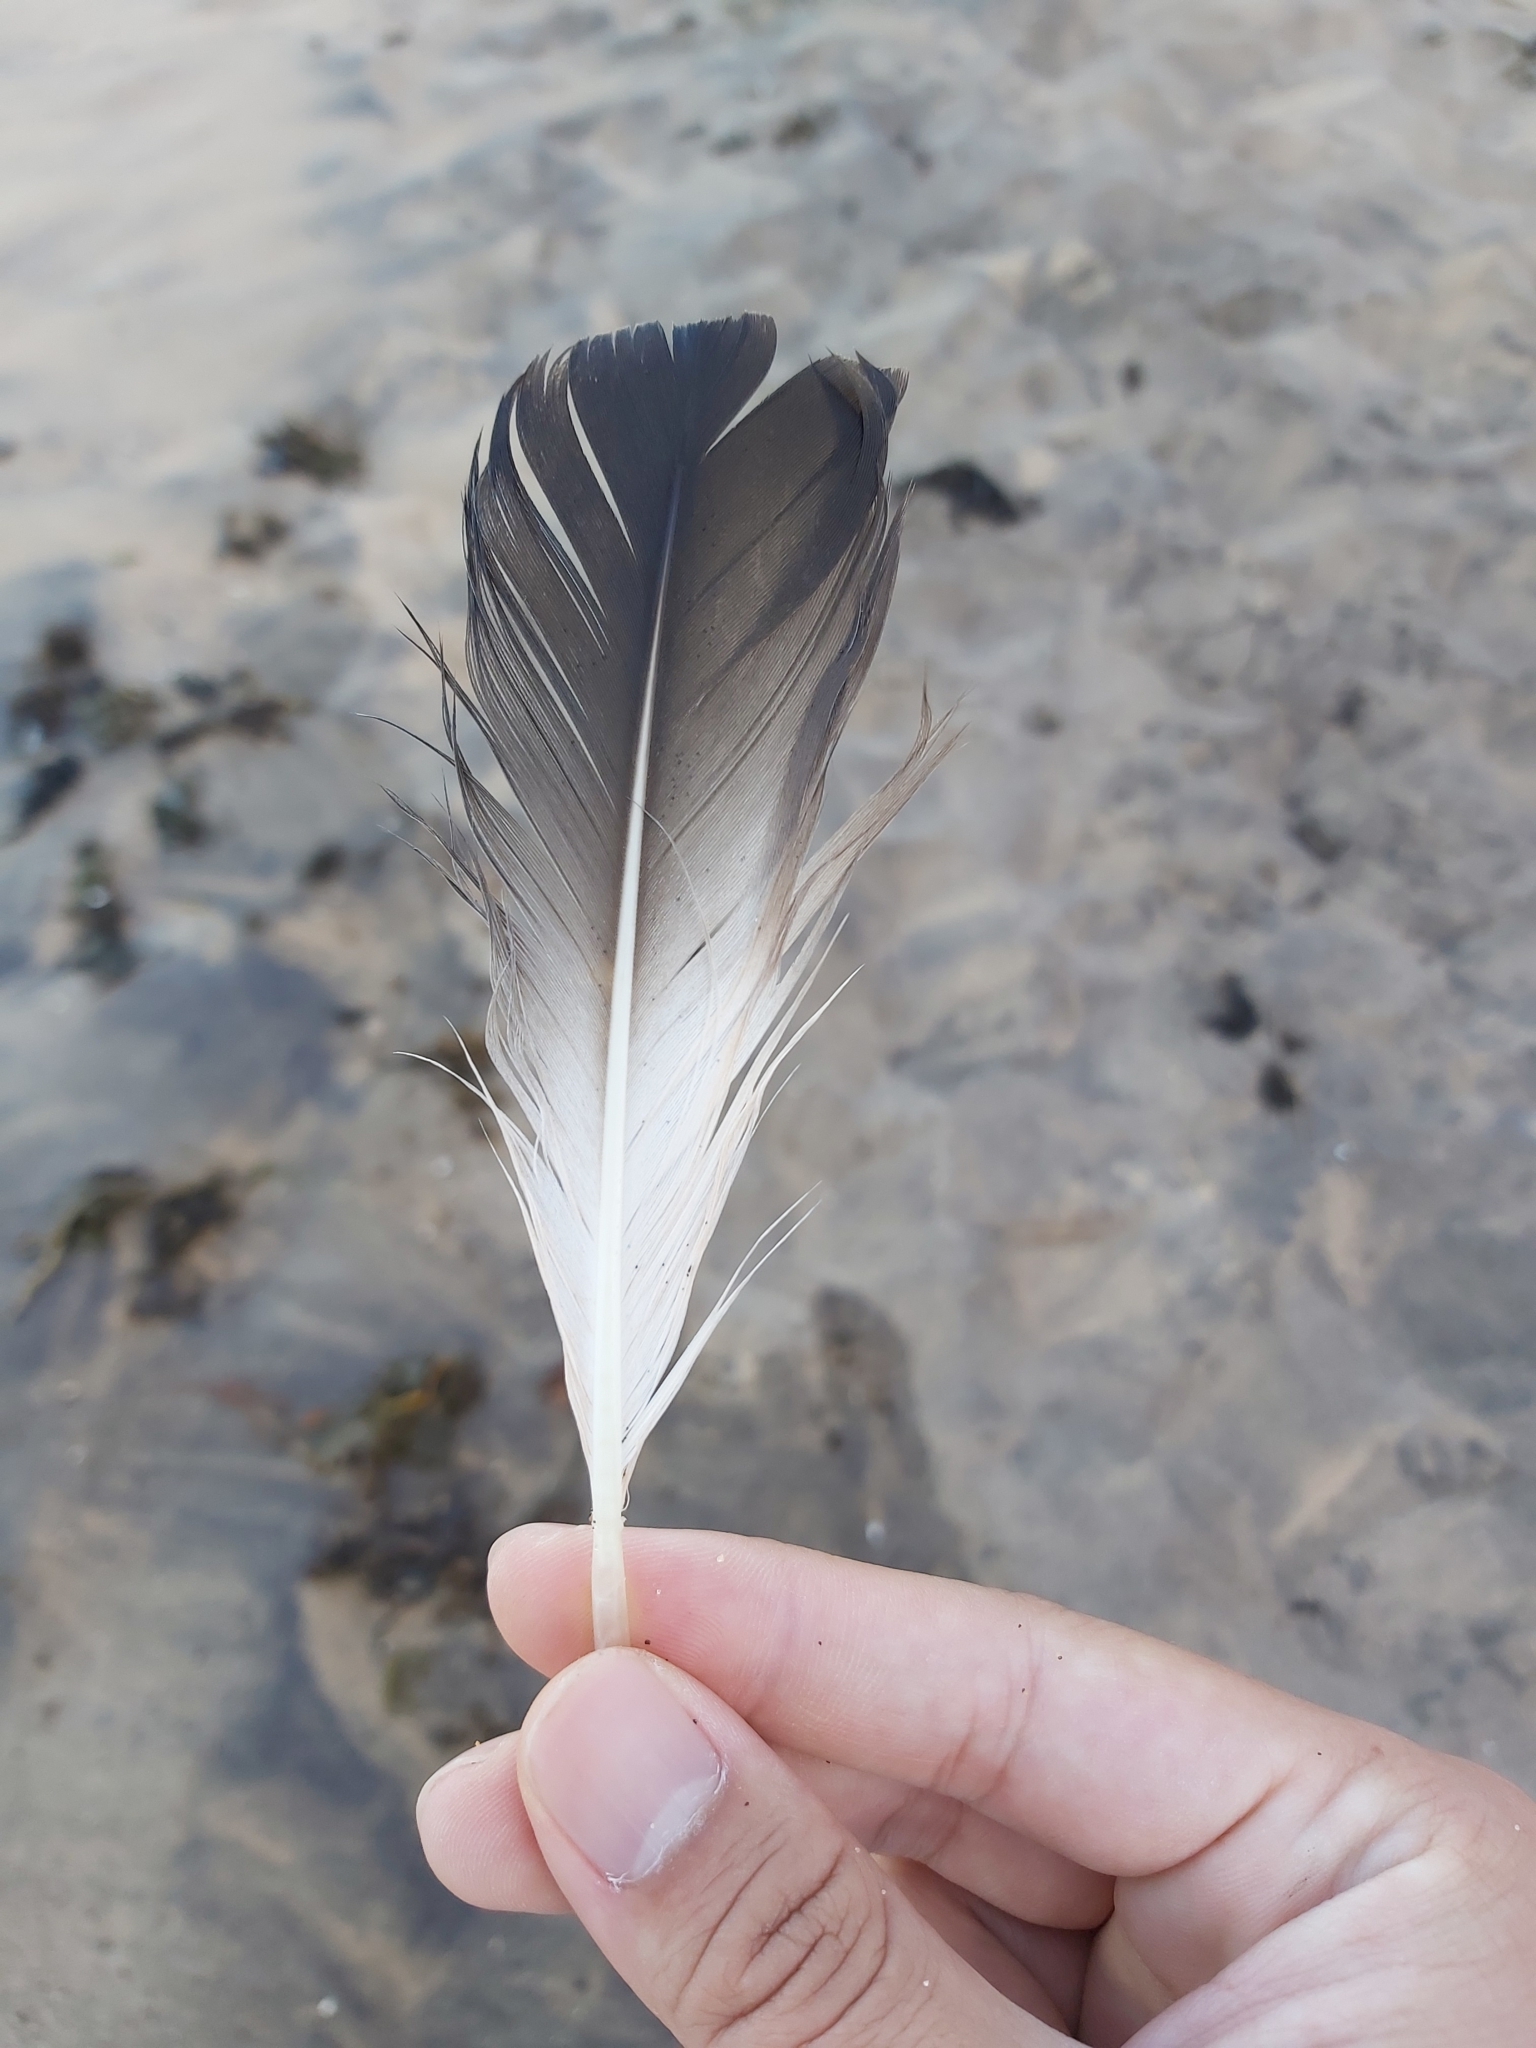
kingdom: Animalia
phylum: Chordata
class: Aves
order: Suliformes
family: Sulidae
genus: Morus
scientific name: Morus serrator
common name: Australasian gannet
